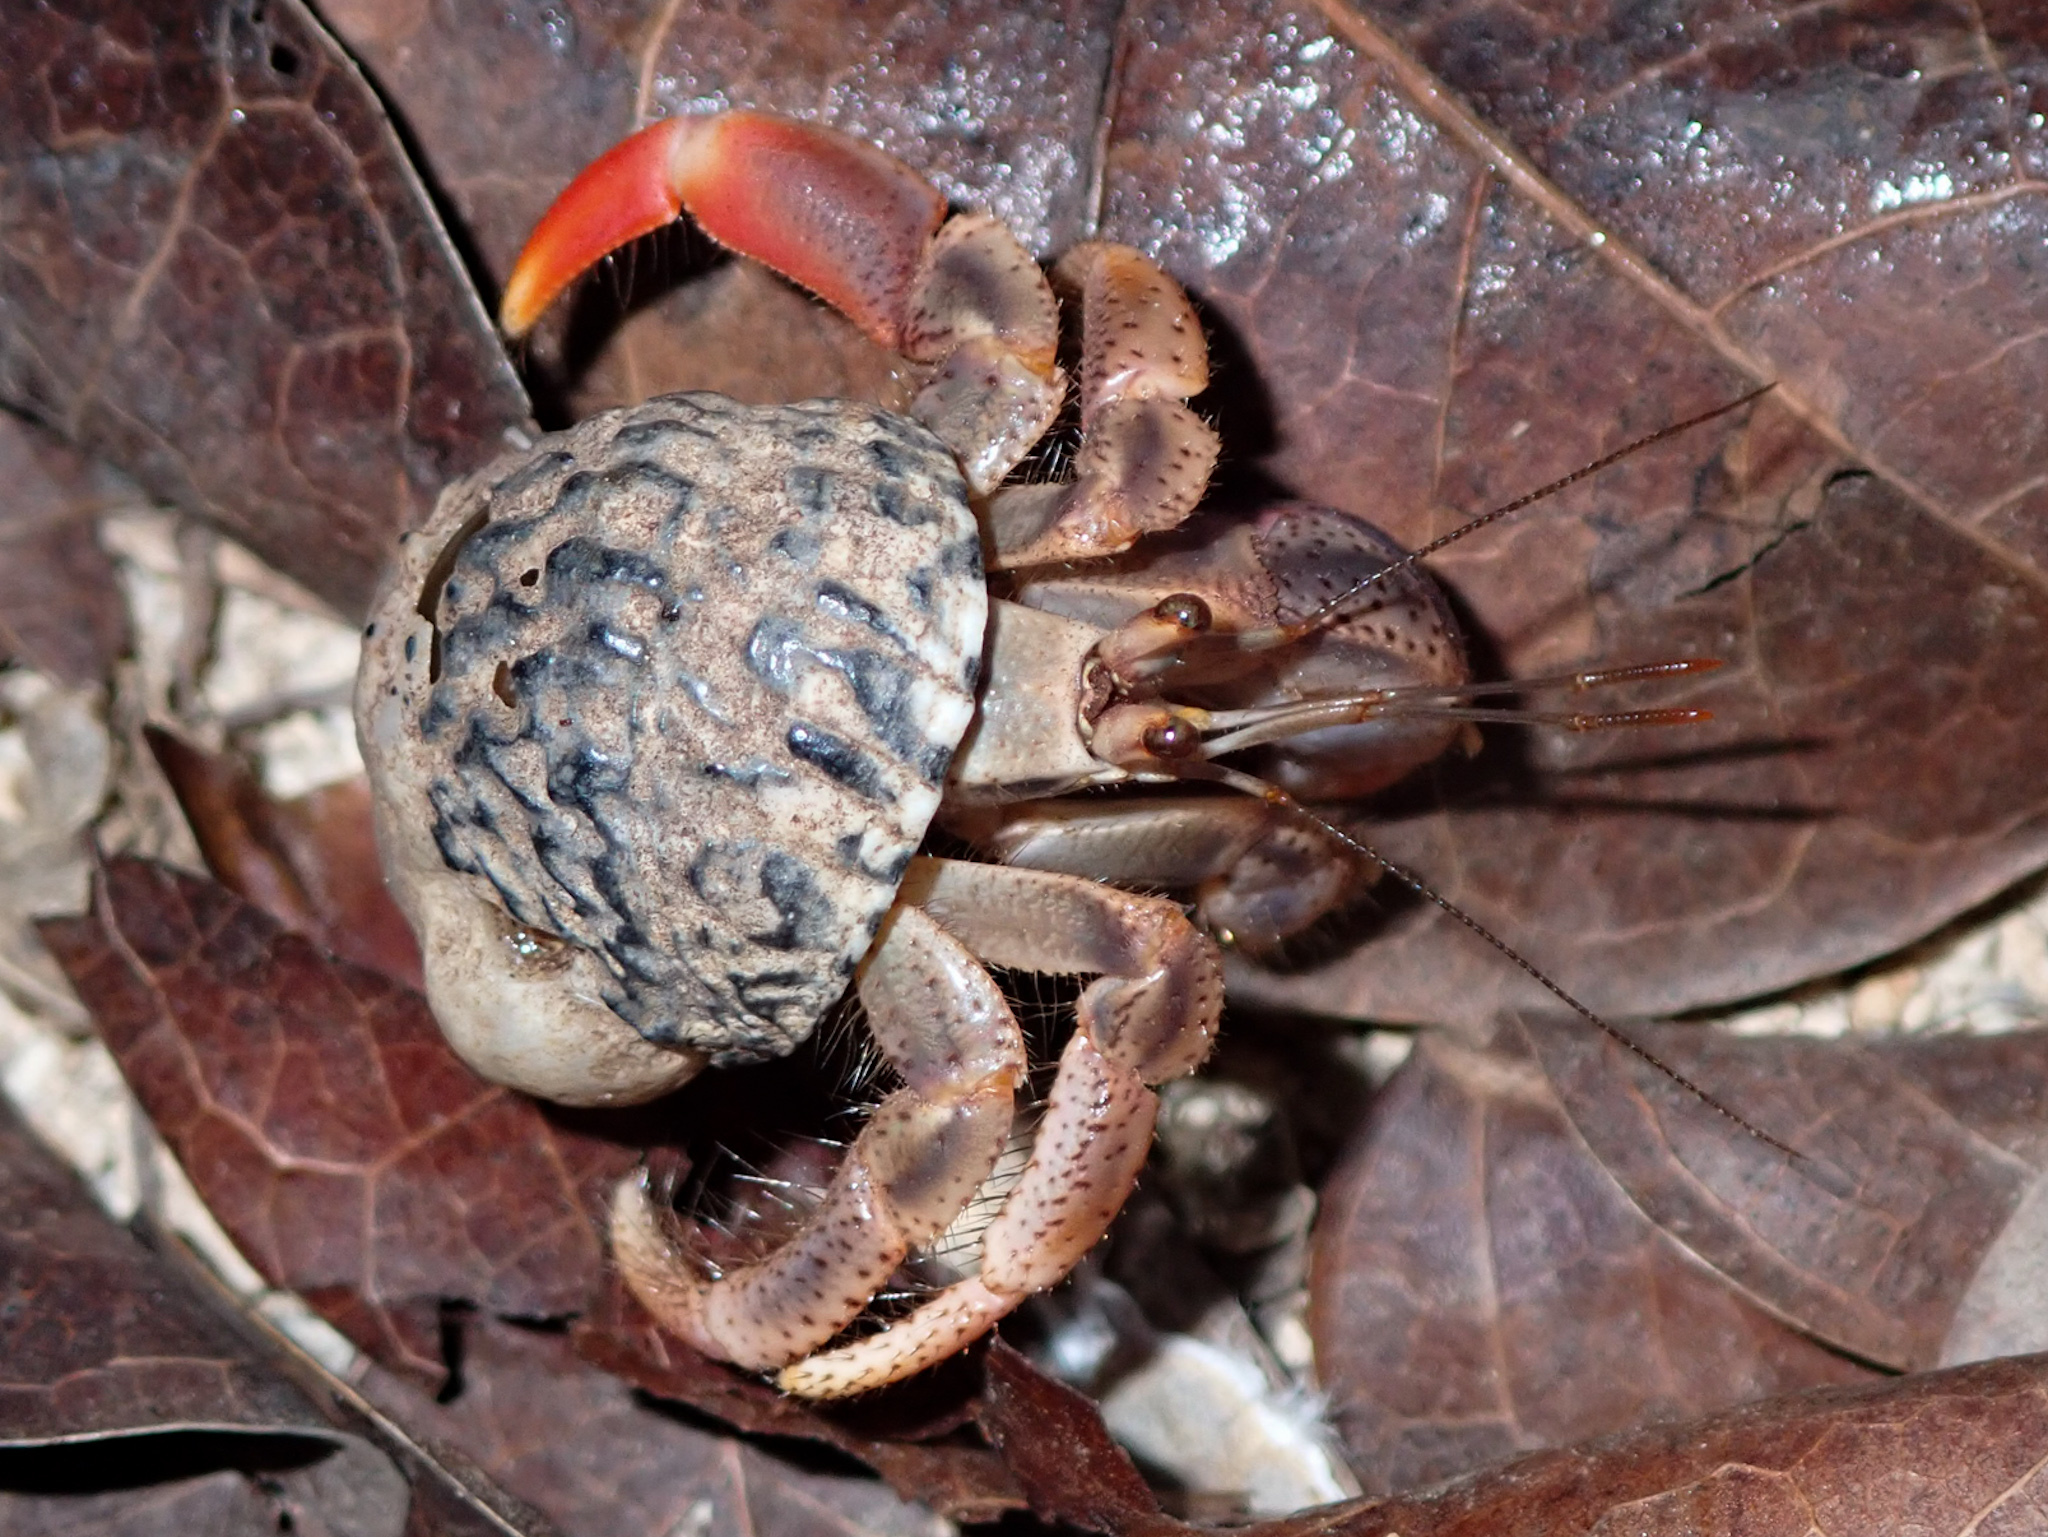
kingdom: Animalia
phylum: Arthropoda
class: Malacostraca
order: Decapoda
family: Coenobitidae
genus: Coenobita
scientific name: Coenobita clypeatus
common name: Caribbean hermit crab
